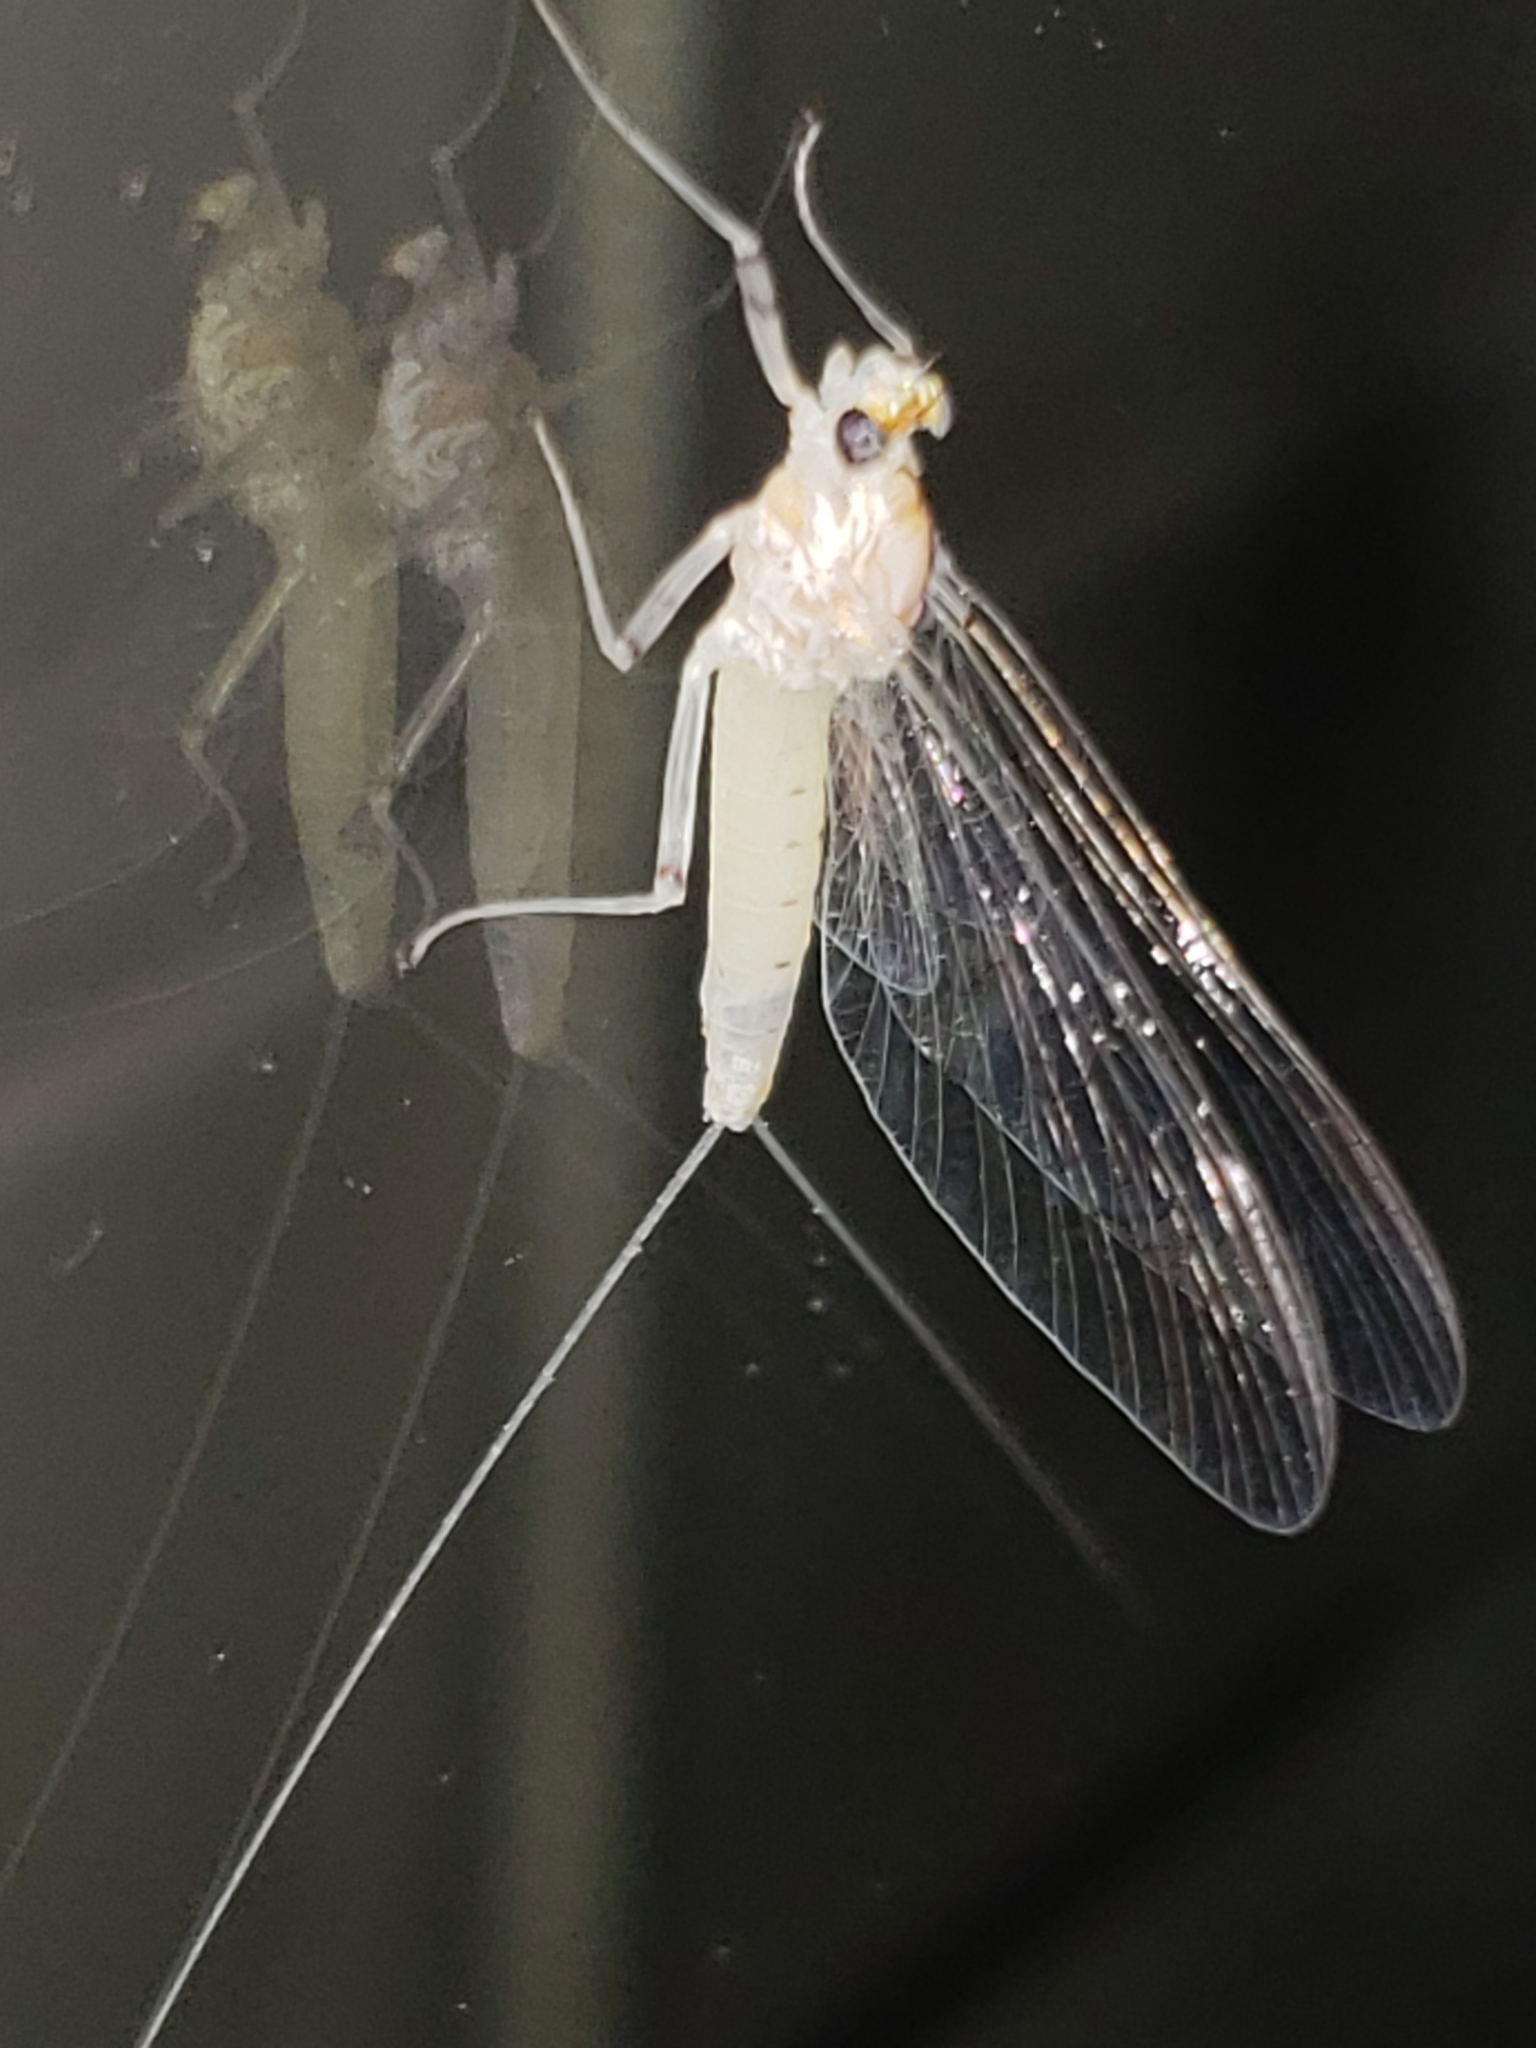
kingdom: Animalia
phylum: Arthropoda
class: Insecta
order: Ephemeroptera
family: Heptageniidae
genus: Maccaffertium
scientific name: Maccaffertium terminatum
